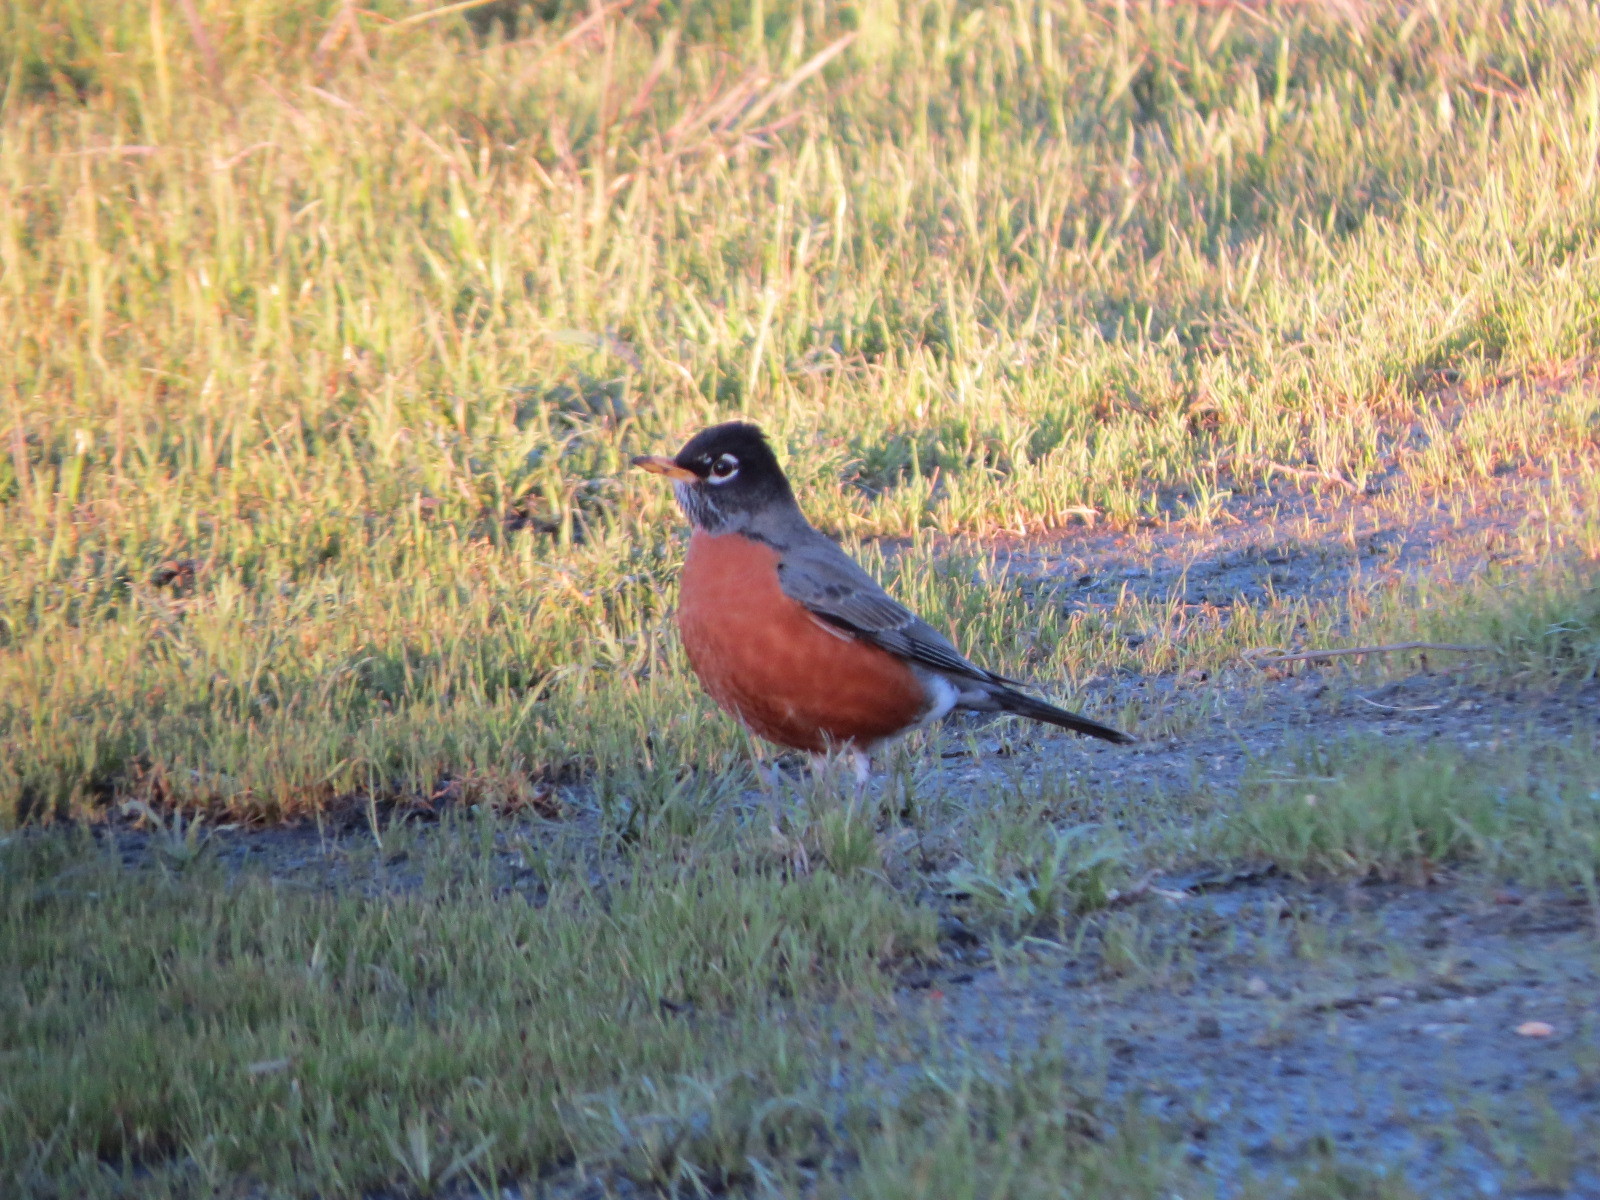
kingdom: Animalia
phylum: Chordata
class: Aves
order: Passeriformes
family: Turdidae
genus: Turdus
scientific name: Turdus migratorius
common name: American robin
